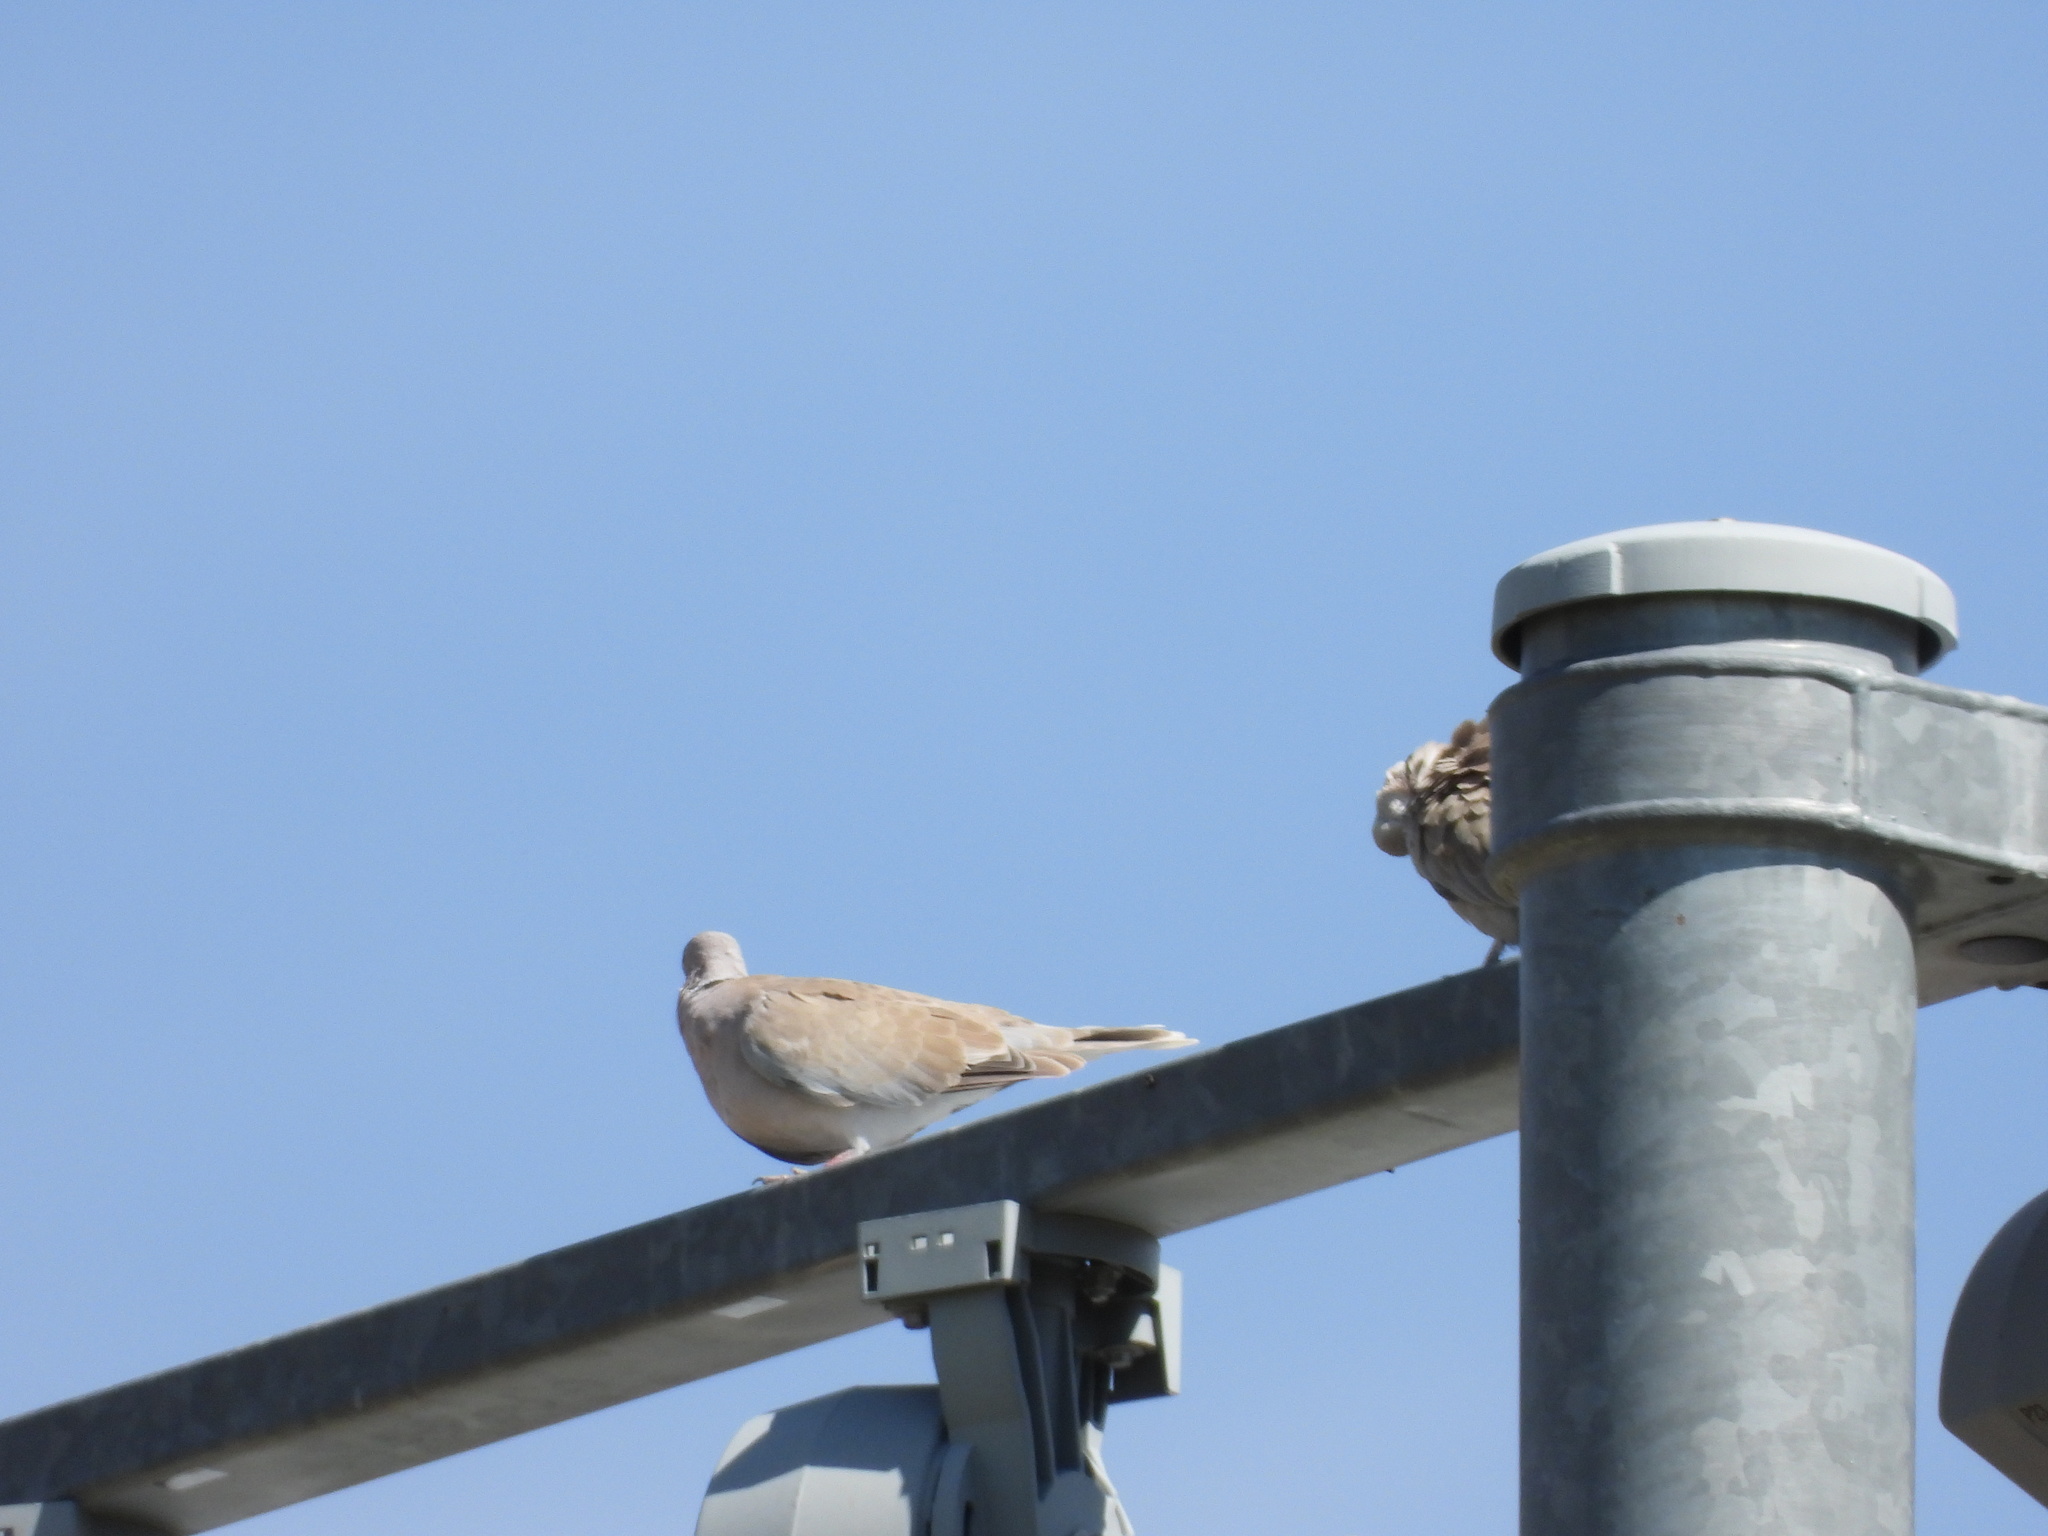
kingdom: Animalia
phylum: Chordata
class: Aves
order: Columbiformes
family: Columbidae
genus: Streptopelia
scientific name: Streptopelia decaocto
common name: Eurasian collared dove
